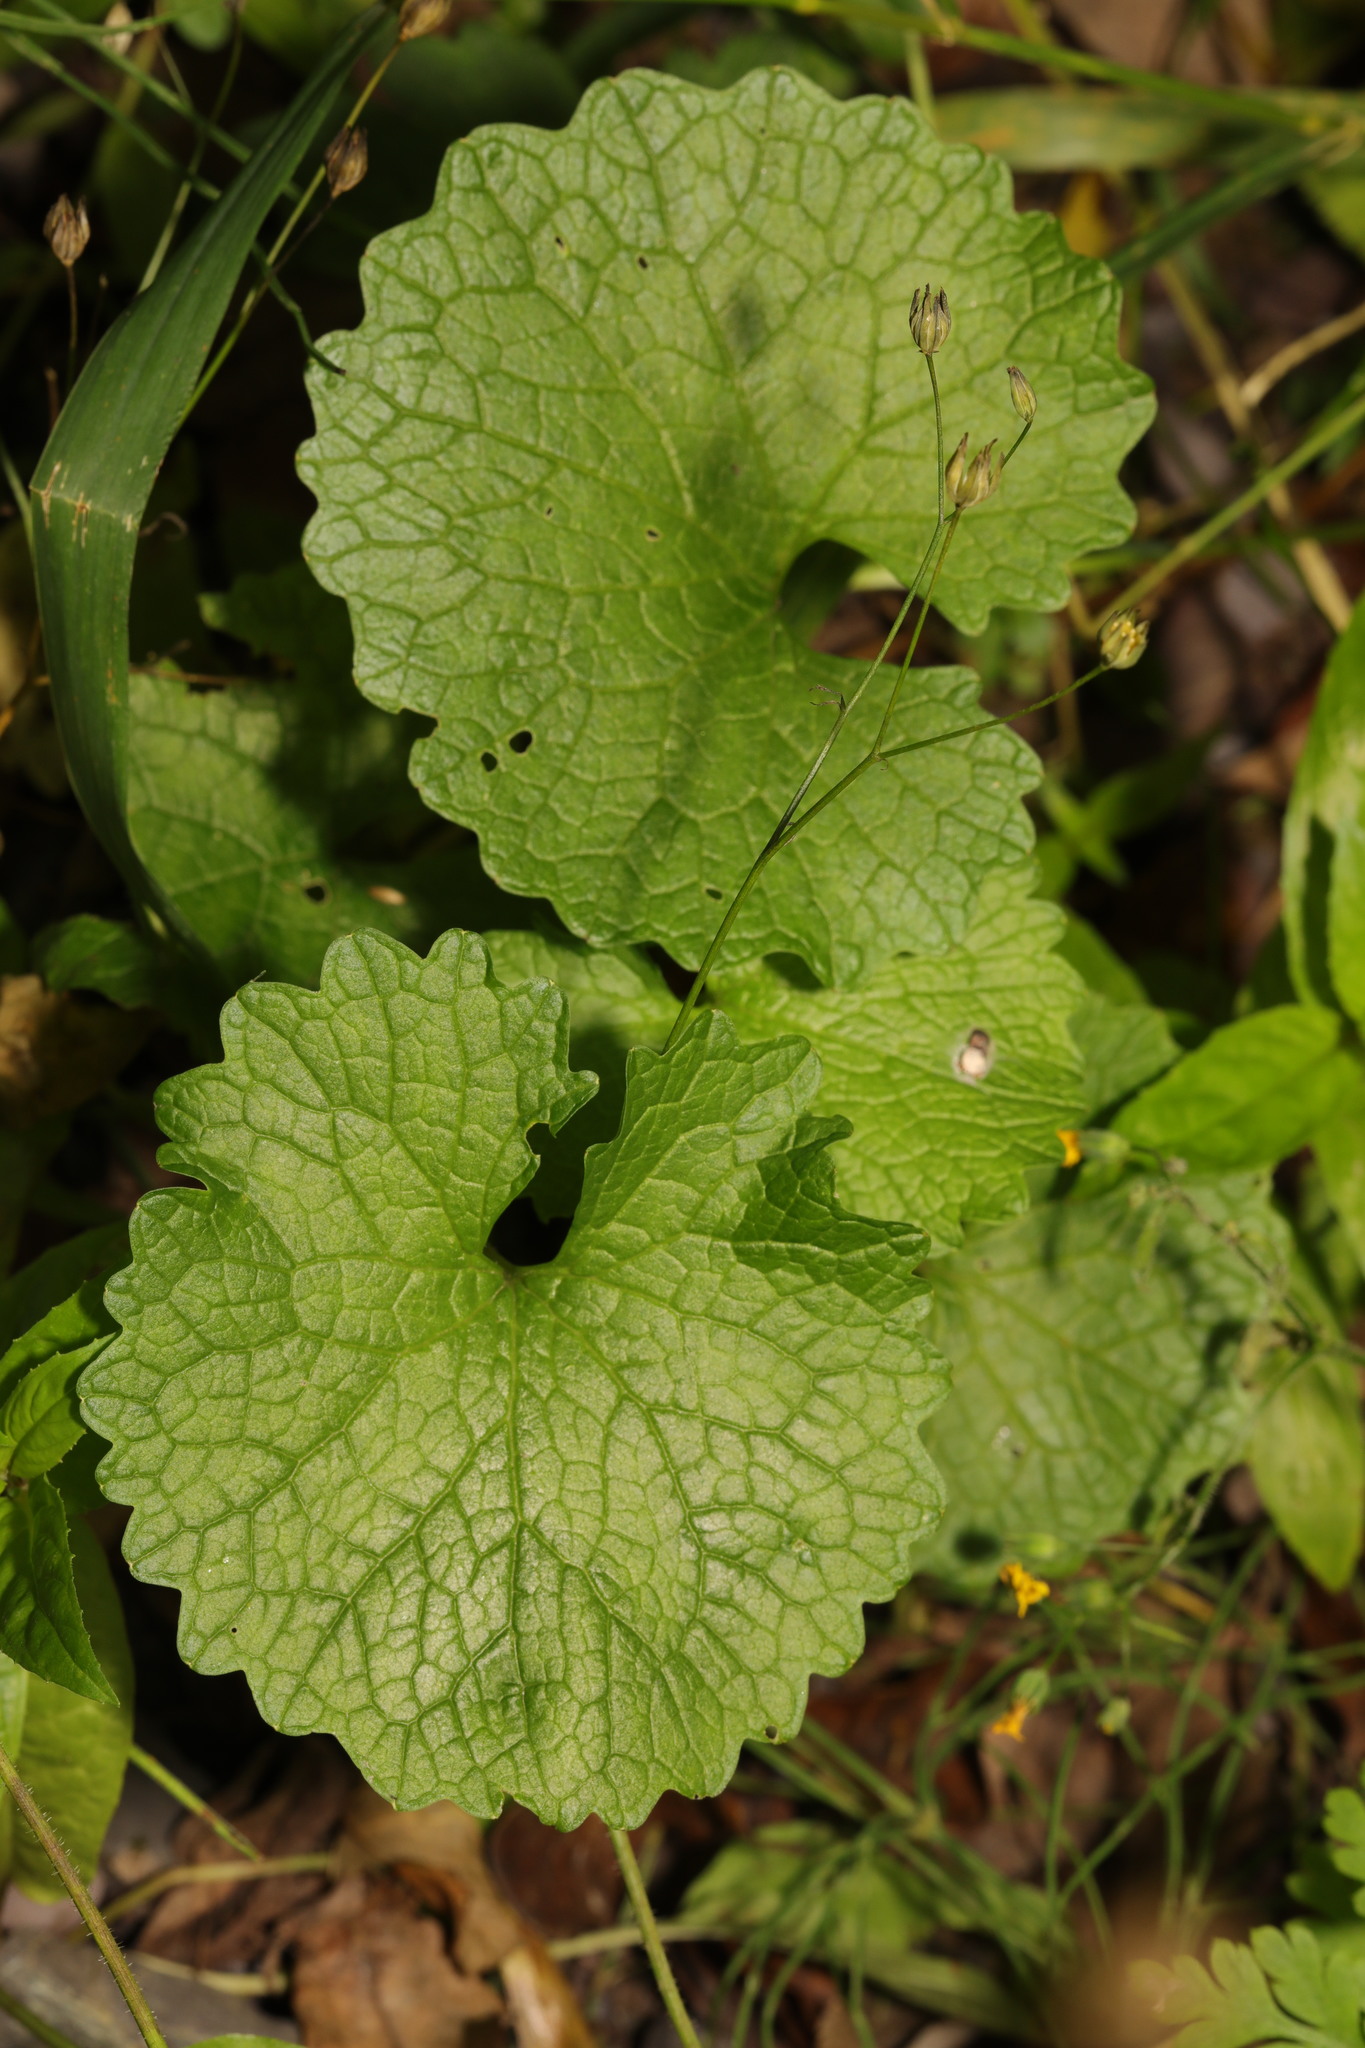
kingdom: Plantae
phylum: Tracheophyta
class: Magnoliopsida
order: Brassicales
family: Brassicaceae
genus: Alliaria
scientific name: Alliaria petiolata
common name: Garlic mustard
